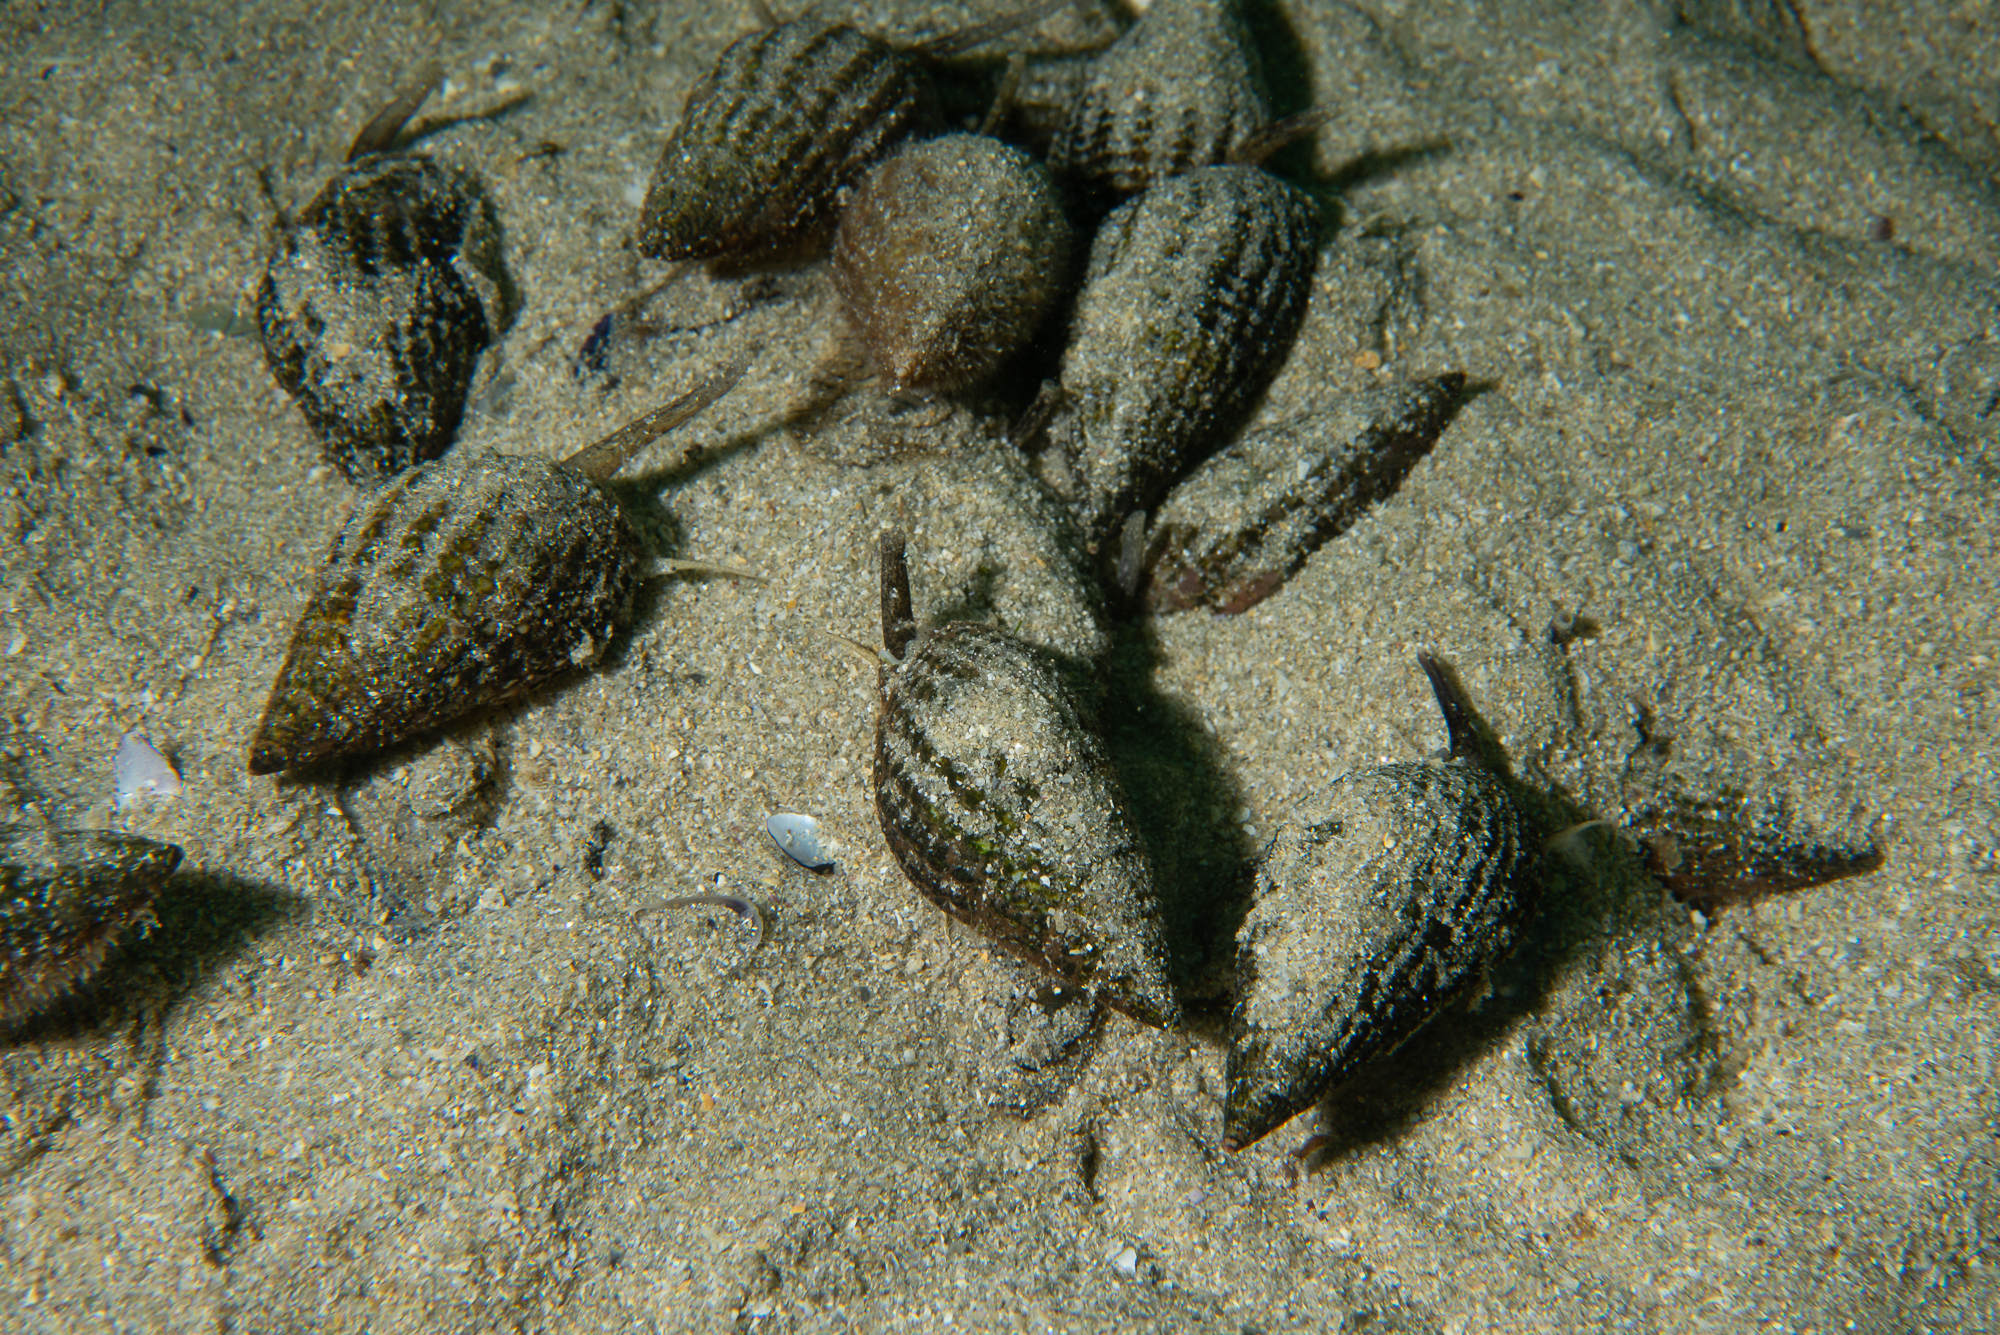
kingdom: Animalia
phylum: Mollusca
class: Gastropoda
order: Neogastropoda
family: Nassariidae
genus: Tritia
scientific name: Tritia reticulata
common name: Netted dog whelk
